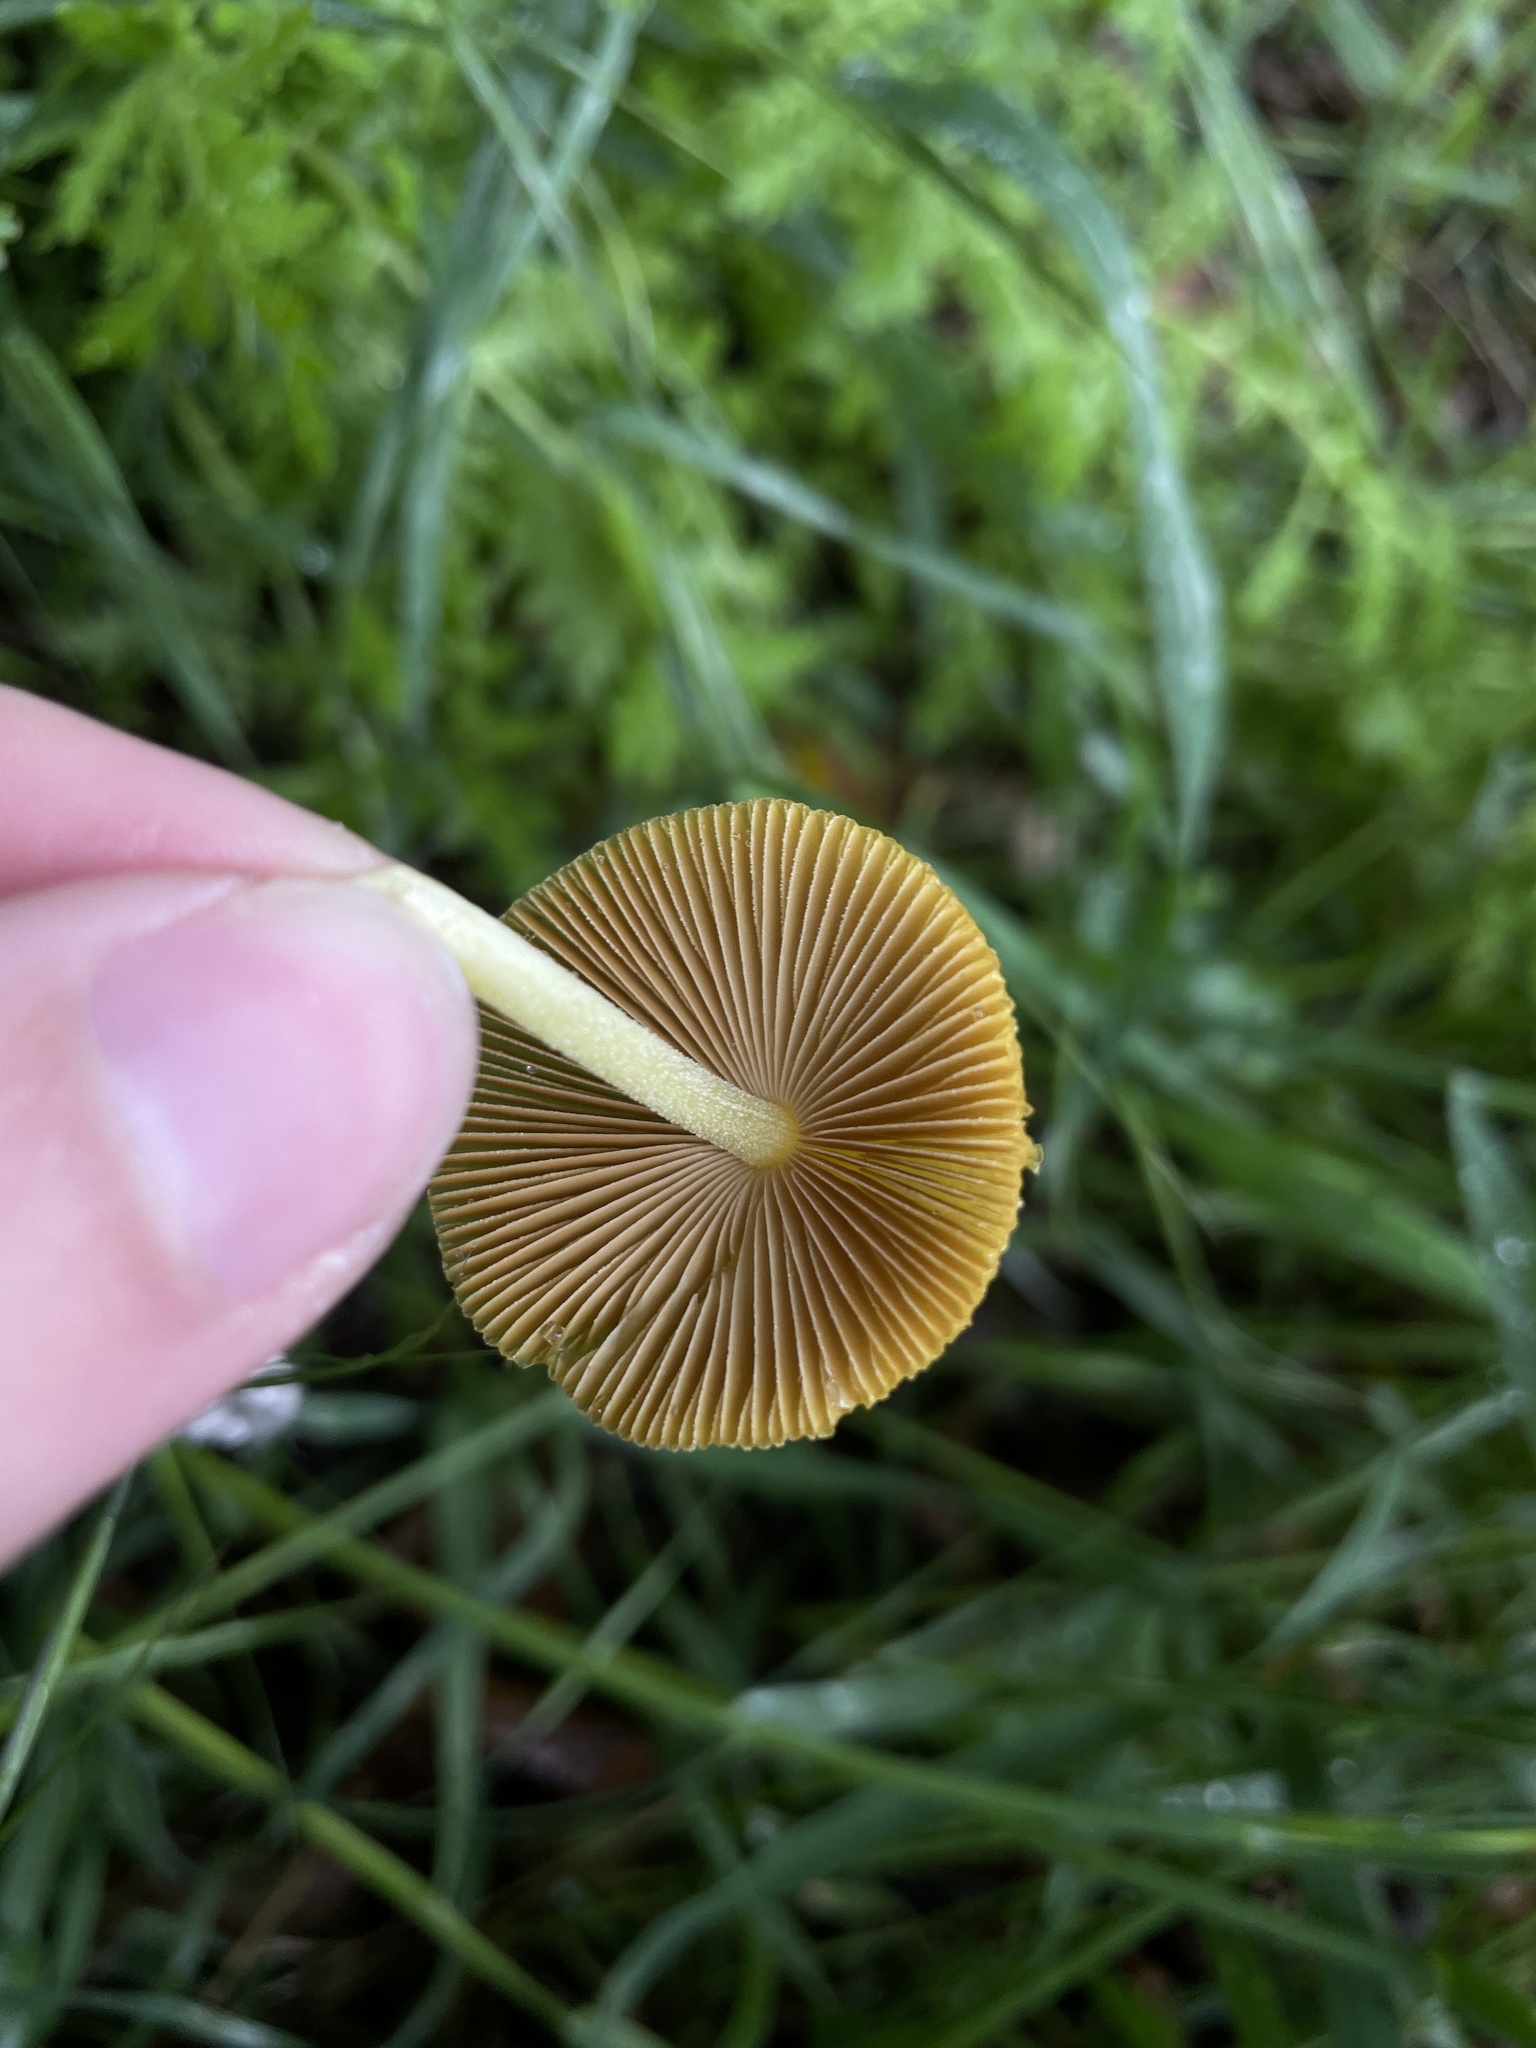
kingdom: Fungi
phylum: Basidiomycota
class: Agaricomycetes
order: Agaricales
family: Bolbitiaceae
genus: Bolbitius
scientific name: Bolbitius titubans
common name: Yellow fieldcap
